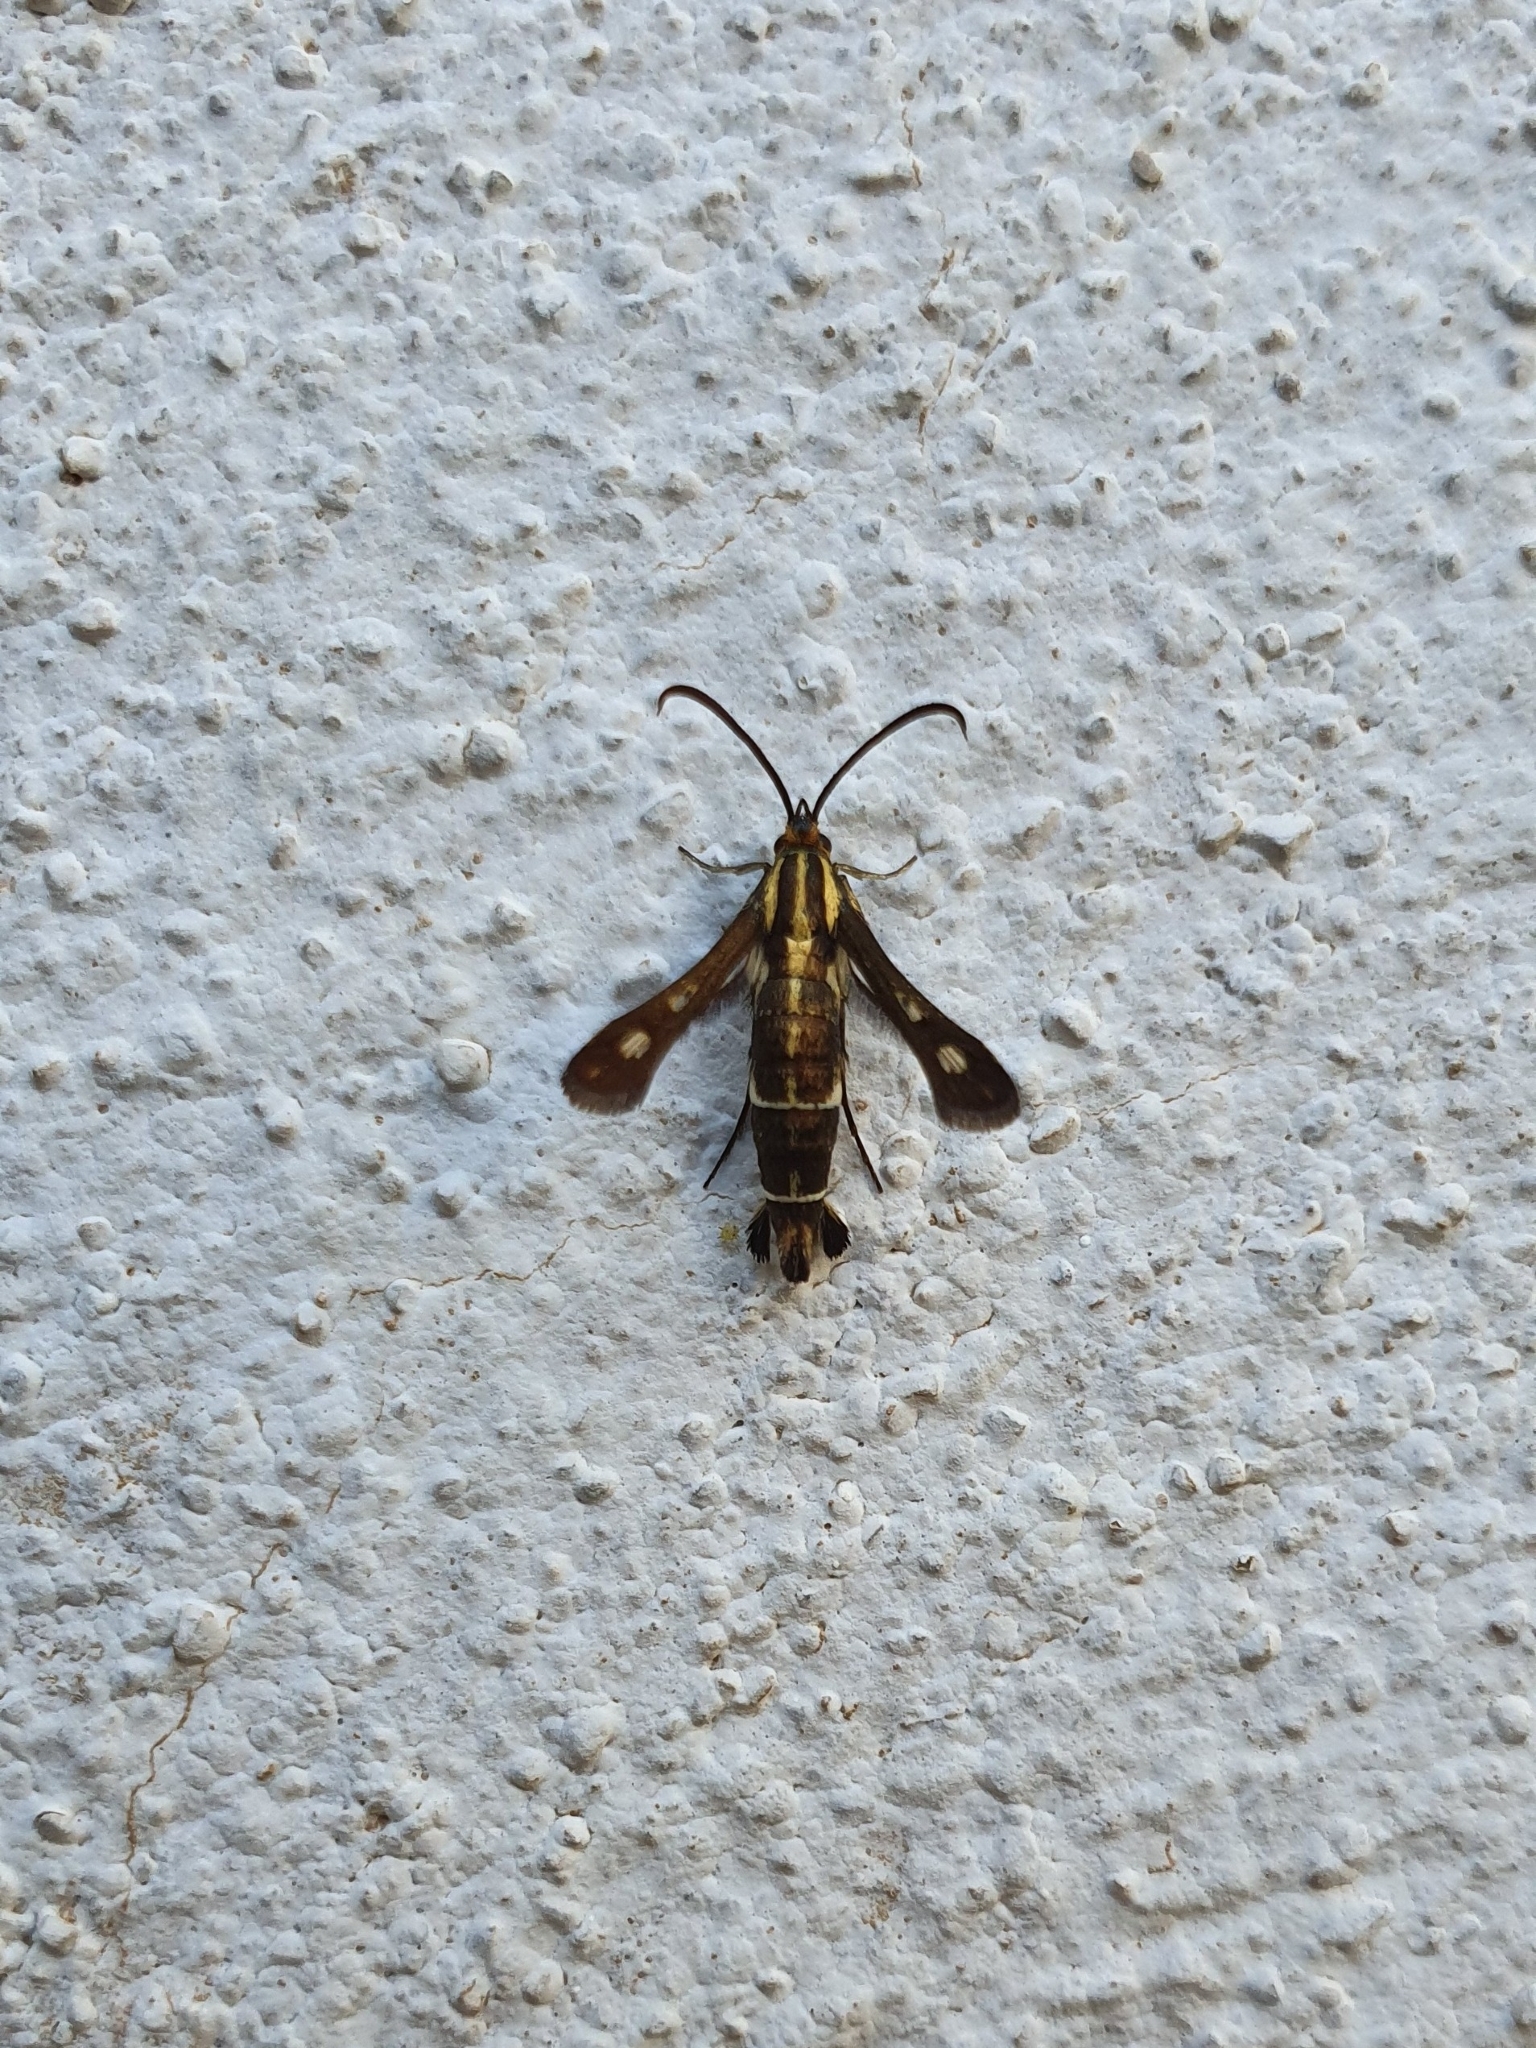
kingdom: Animalia
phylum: Arthropoda
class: Insecta
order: Lepidoptera
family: Sesiidae
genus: Chamaesphecia
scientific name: Chamaesphecia aerifrons
